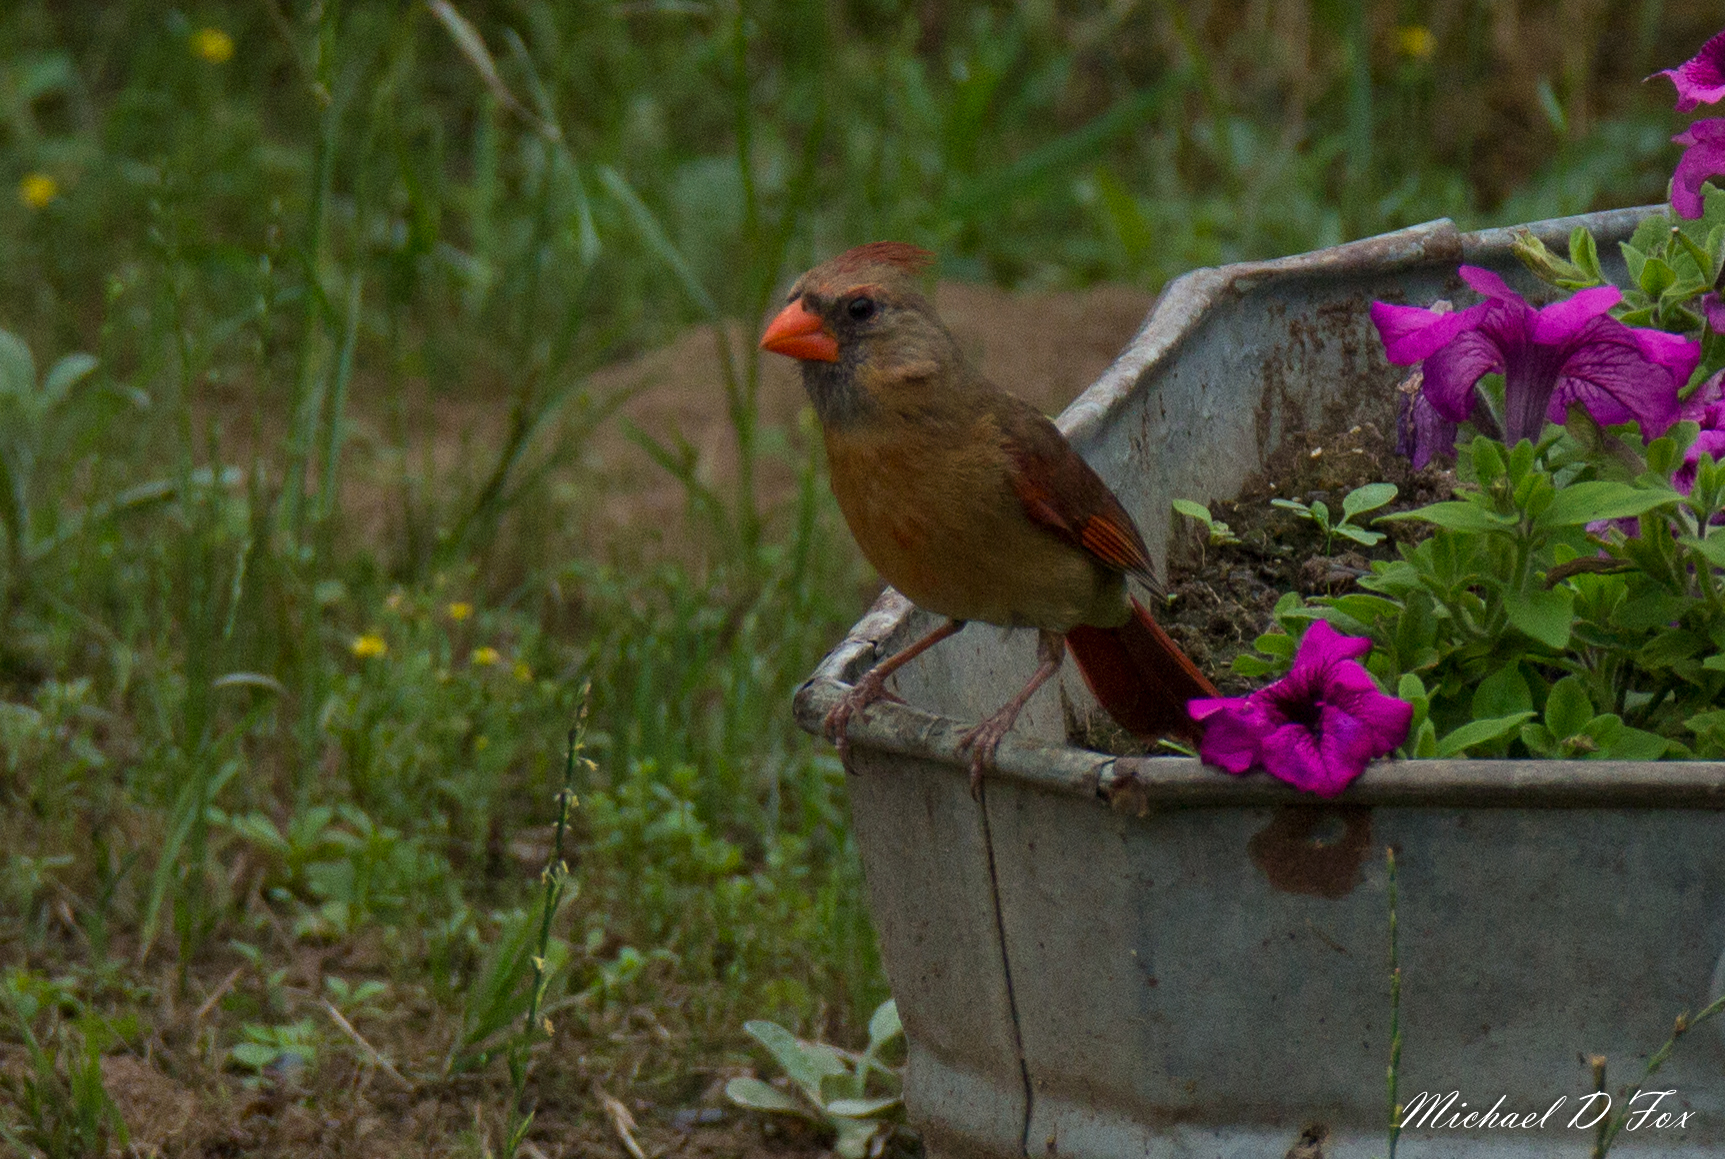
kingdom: Animalia
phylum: Chordata
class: Aves
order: Passeriformes
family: Cardinalidae
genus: Cardinalis
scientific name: Cardinalis cardinalis
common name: Northern cardinal
